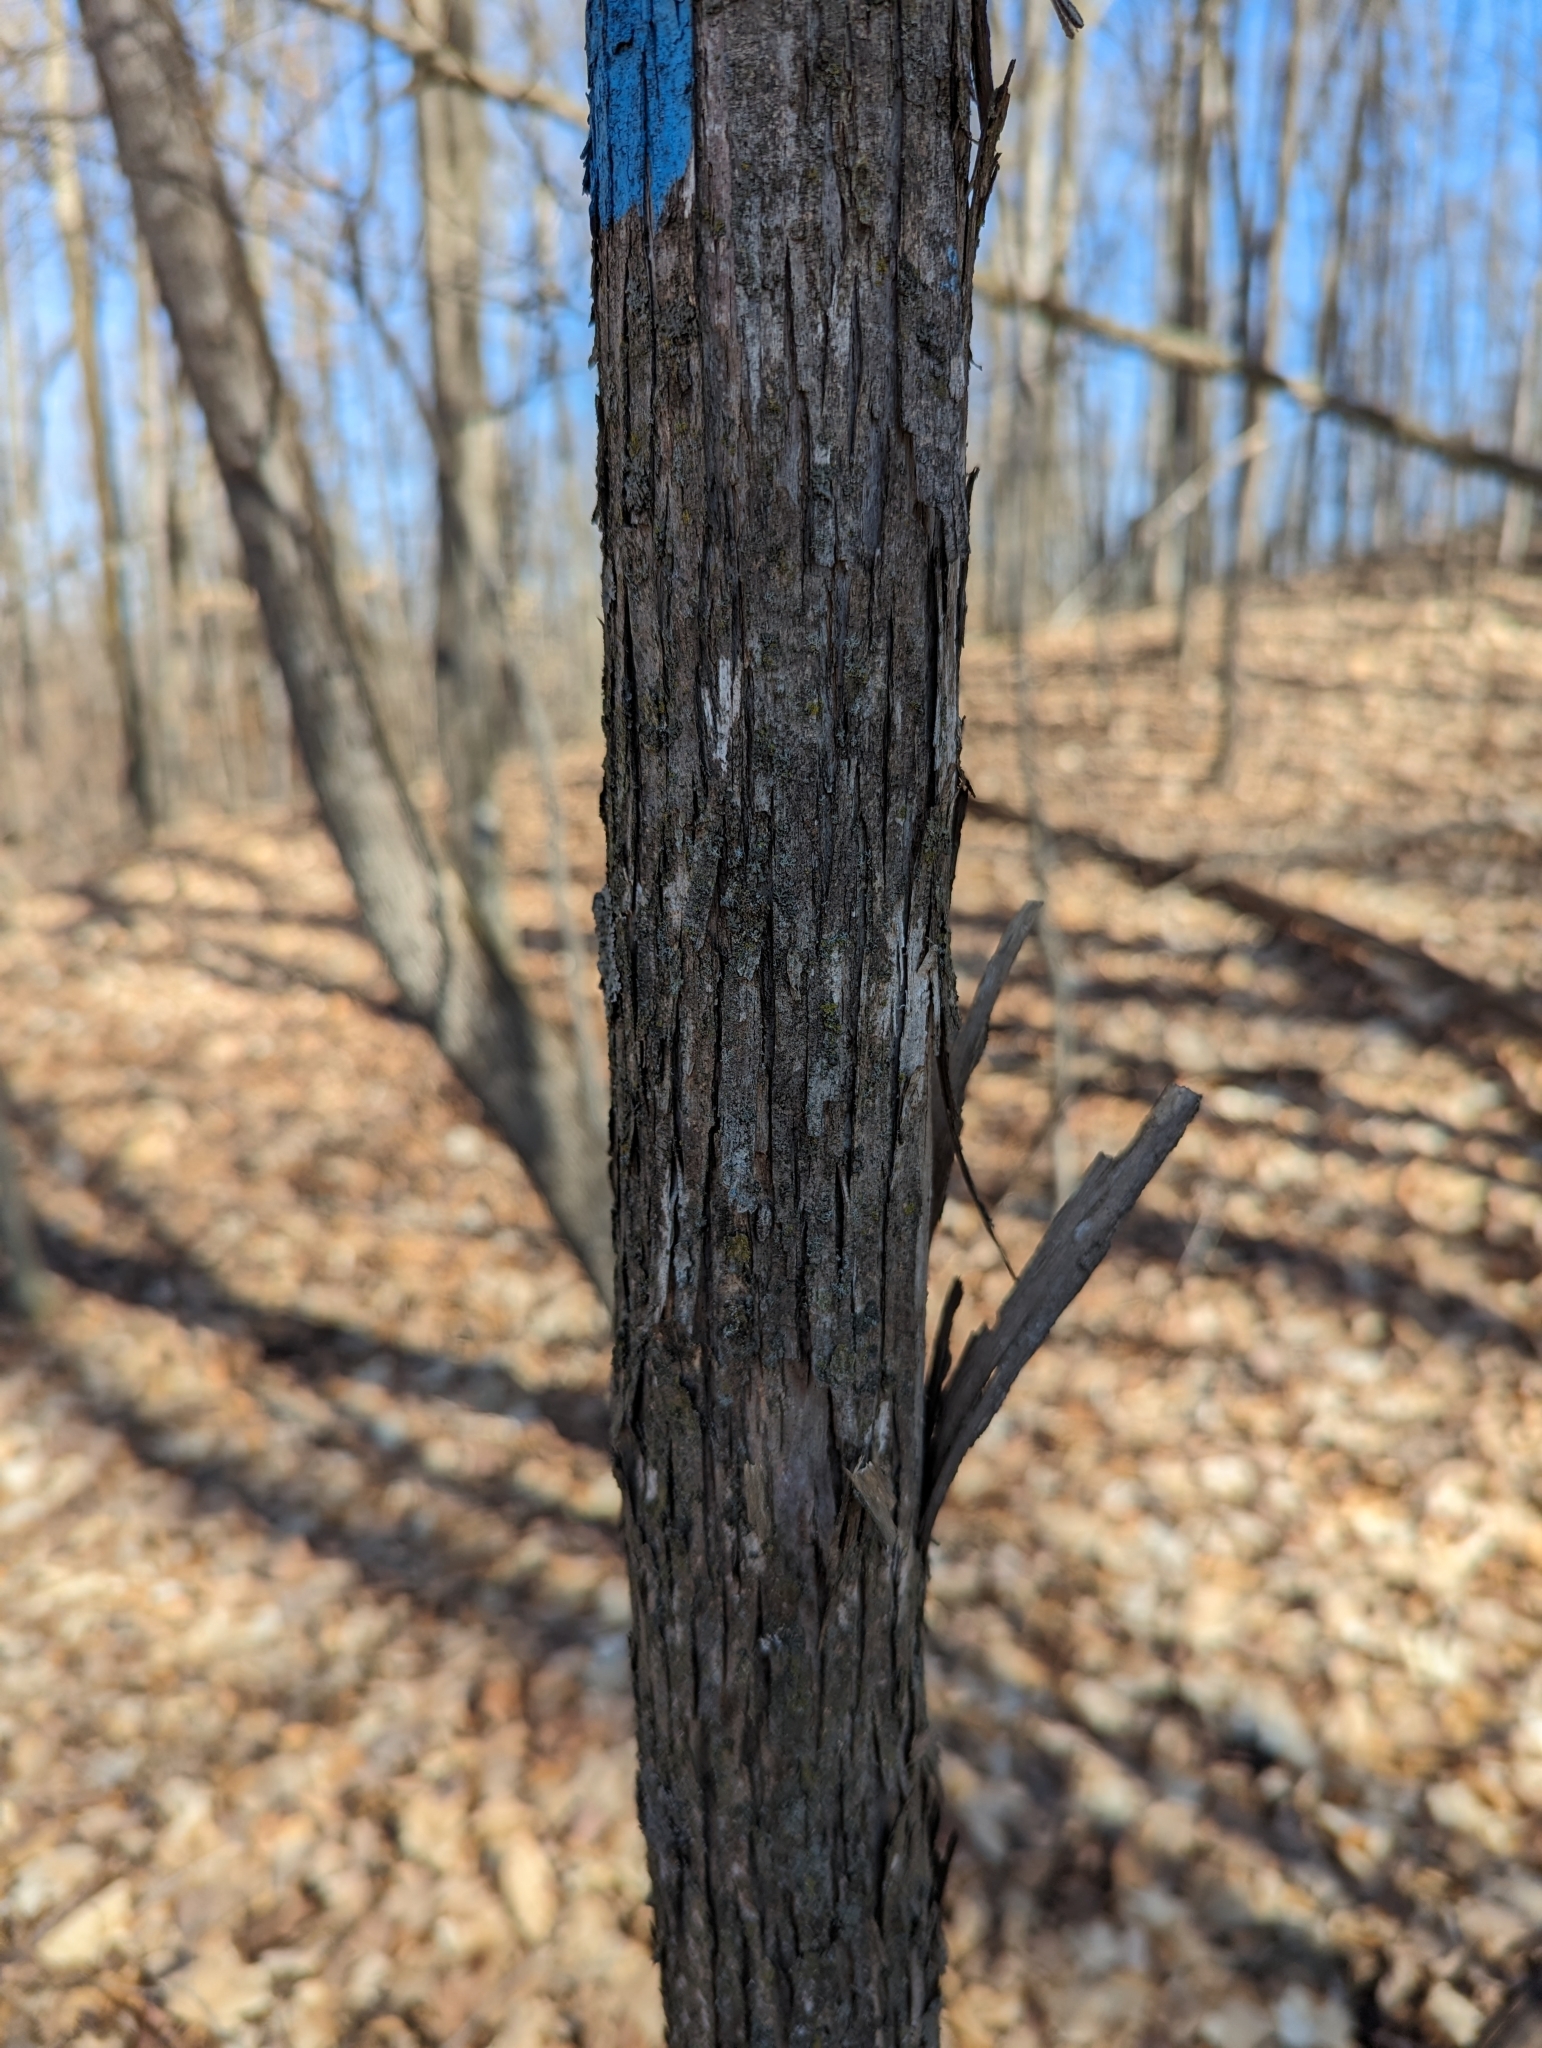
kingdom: Plantae
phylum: Tracheophyta
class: Magnoliopsida
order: Fagales
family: Betulaceae
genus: Ostrya
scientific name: Ostrya virginiana
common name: Ironwood
